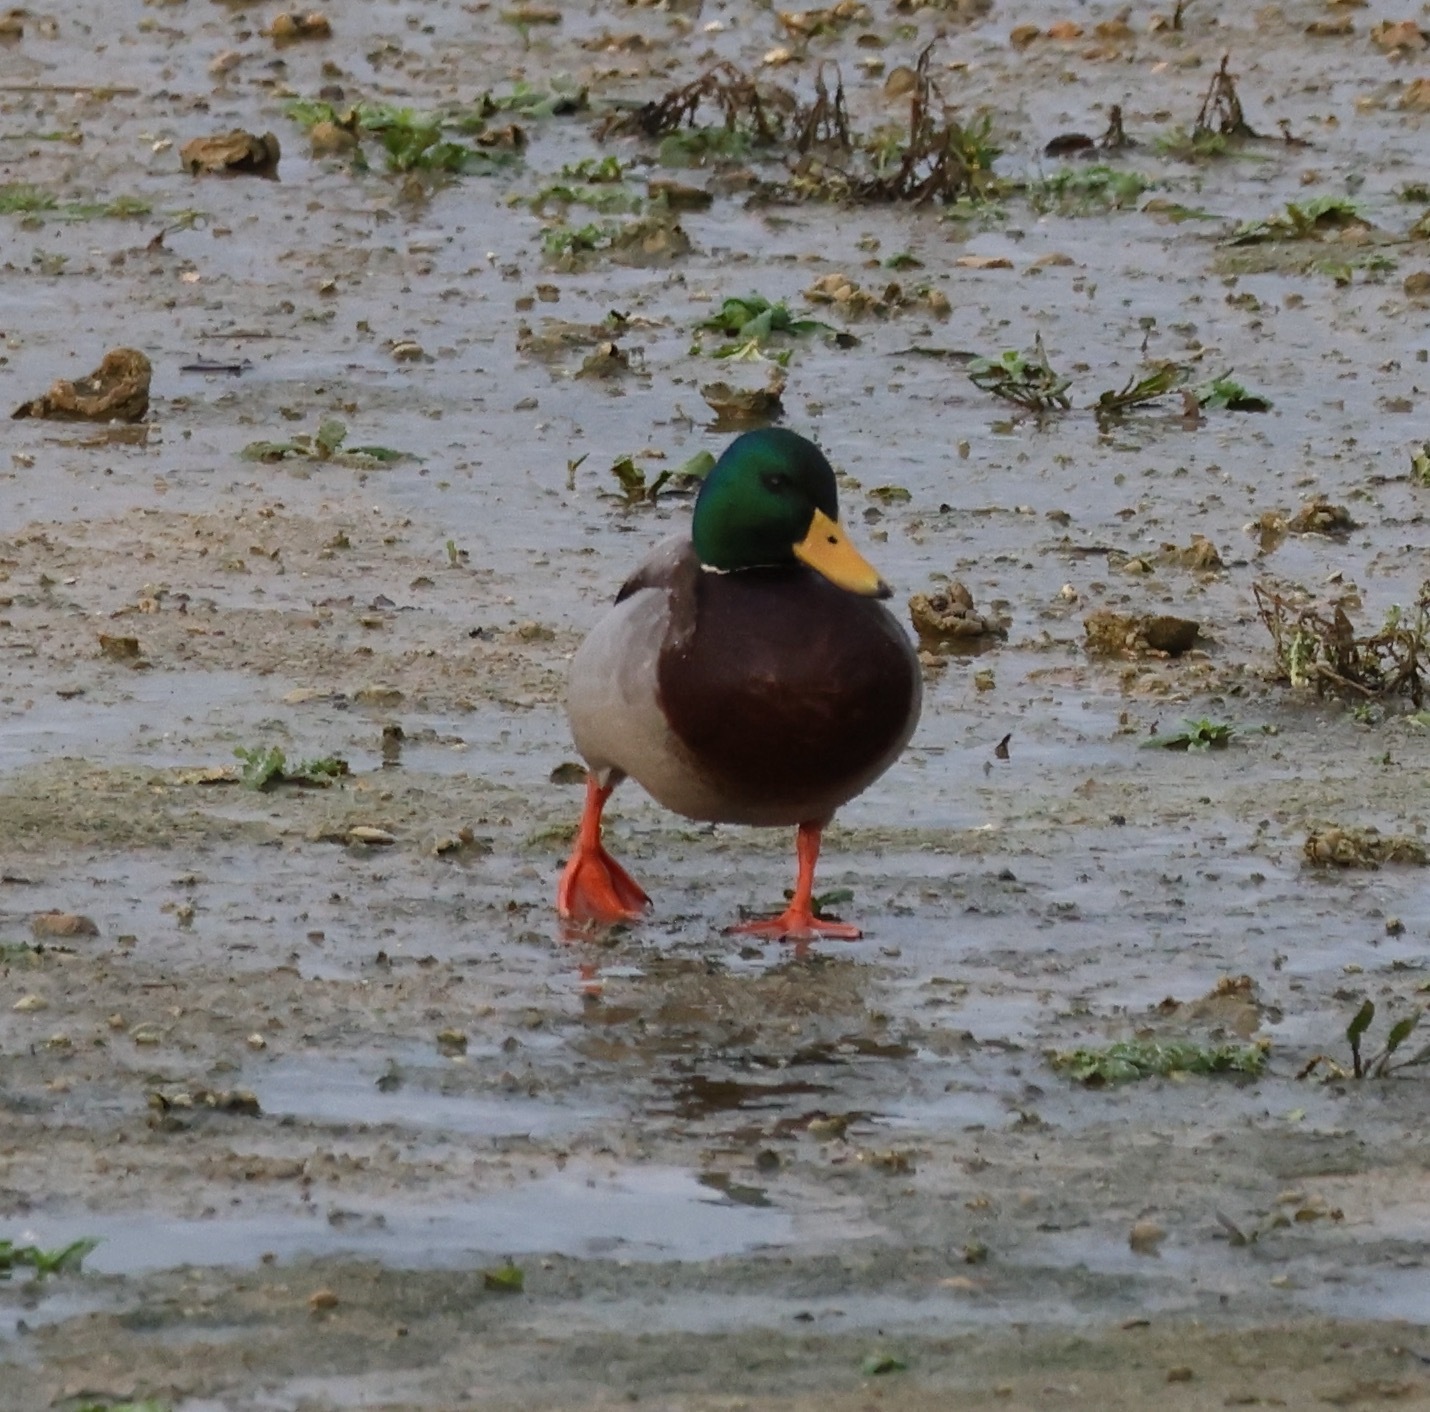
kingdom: Animalia
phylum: Chordata
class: Aves
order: Anseriformes
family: Anatidae
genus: Anas
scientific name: Anas platyrhynchos
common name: Mallard
